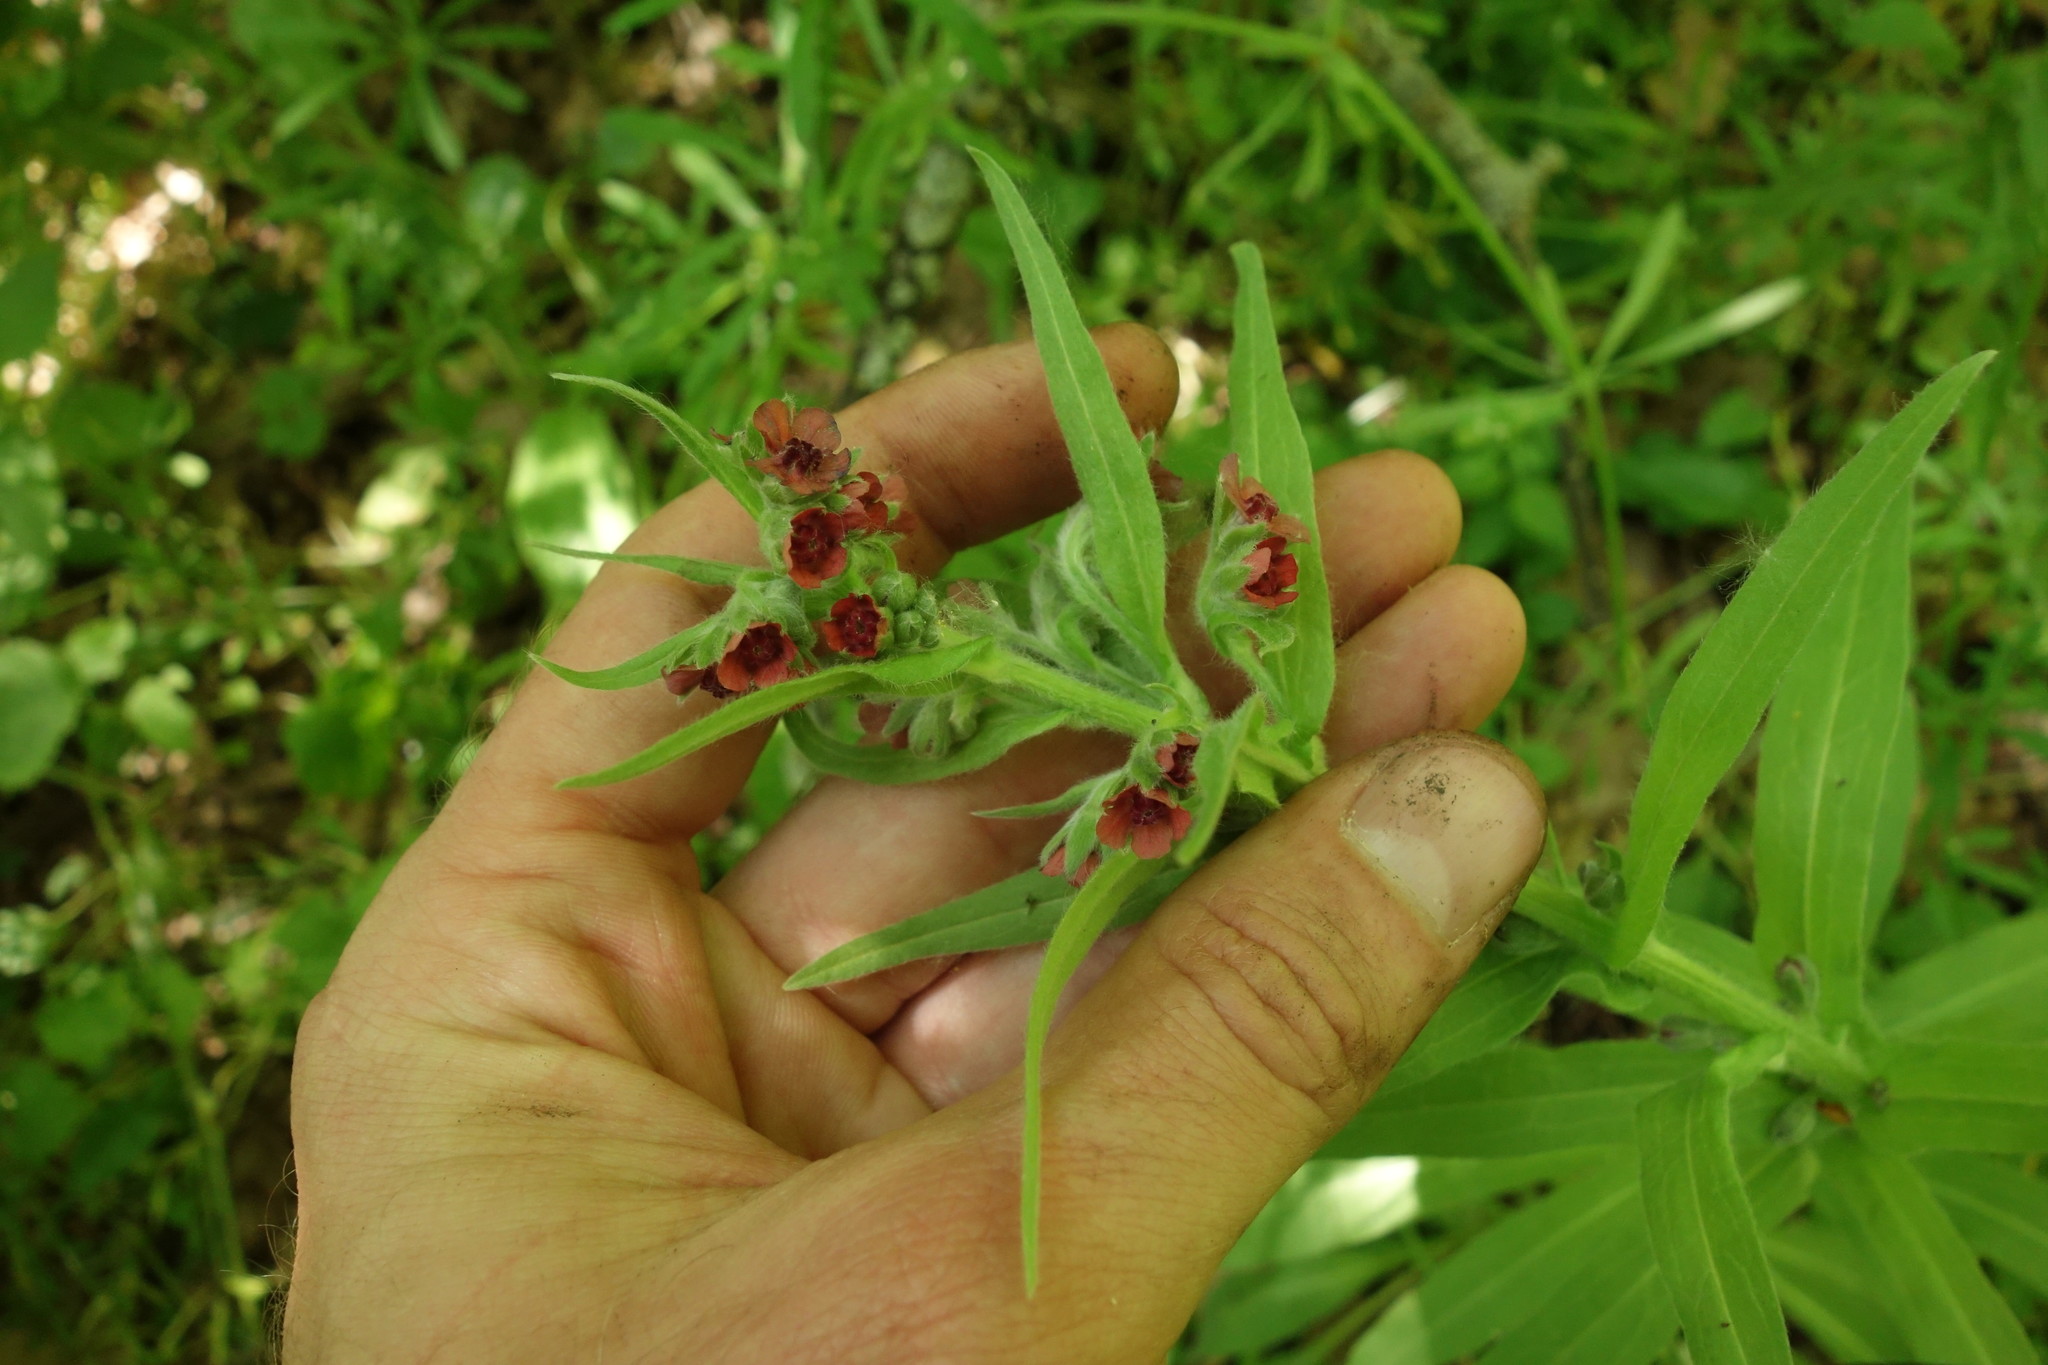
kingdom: Plantae
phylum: Tracheophyta
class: Magnoliopsida
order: Boraginales
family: Boraginaceae
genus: Cynoglossum
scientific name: Cynoglossum officinale
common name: Hound's-tongue
